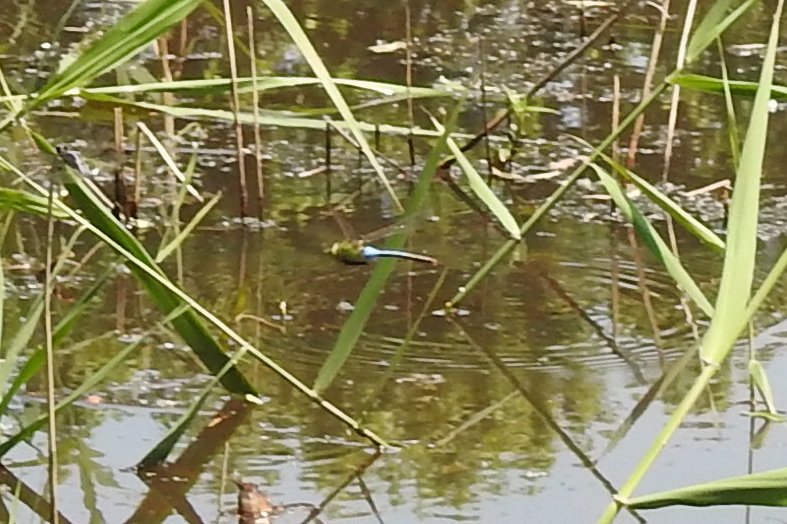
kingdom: Animalia
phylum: Arthropoda
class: Insecta
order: Odonata
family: Aeshnidae
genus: Anax
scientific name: Anax junius
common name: Common green darner
